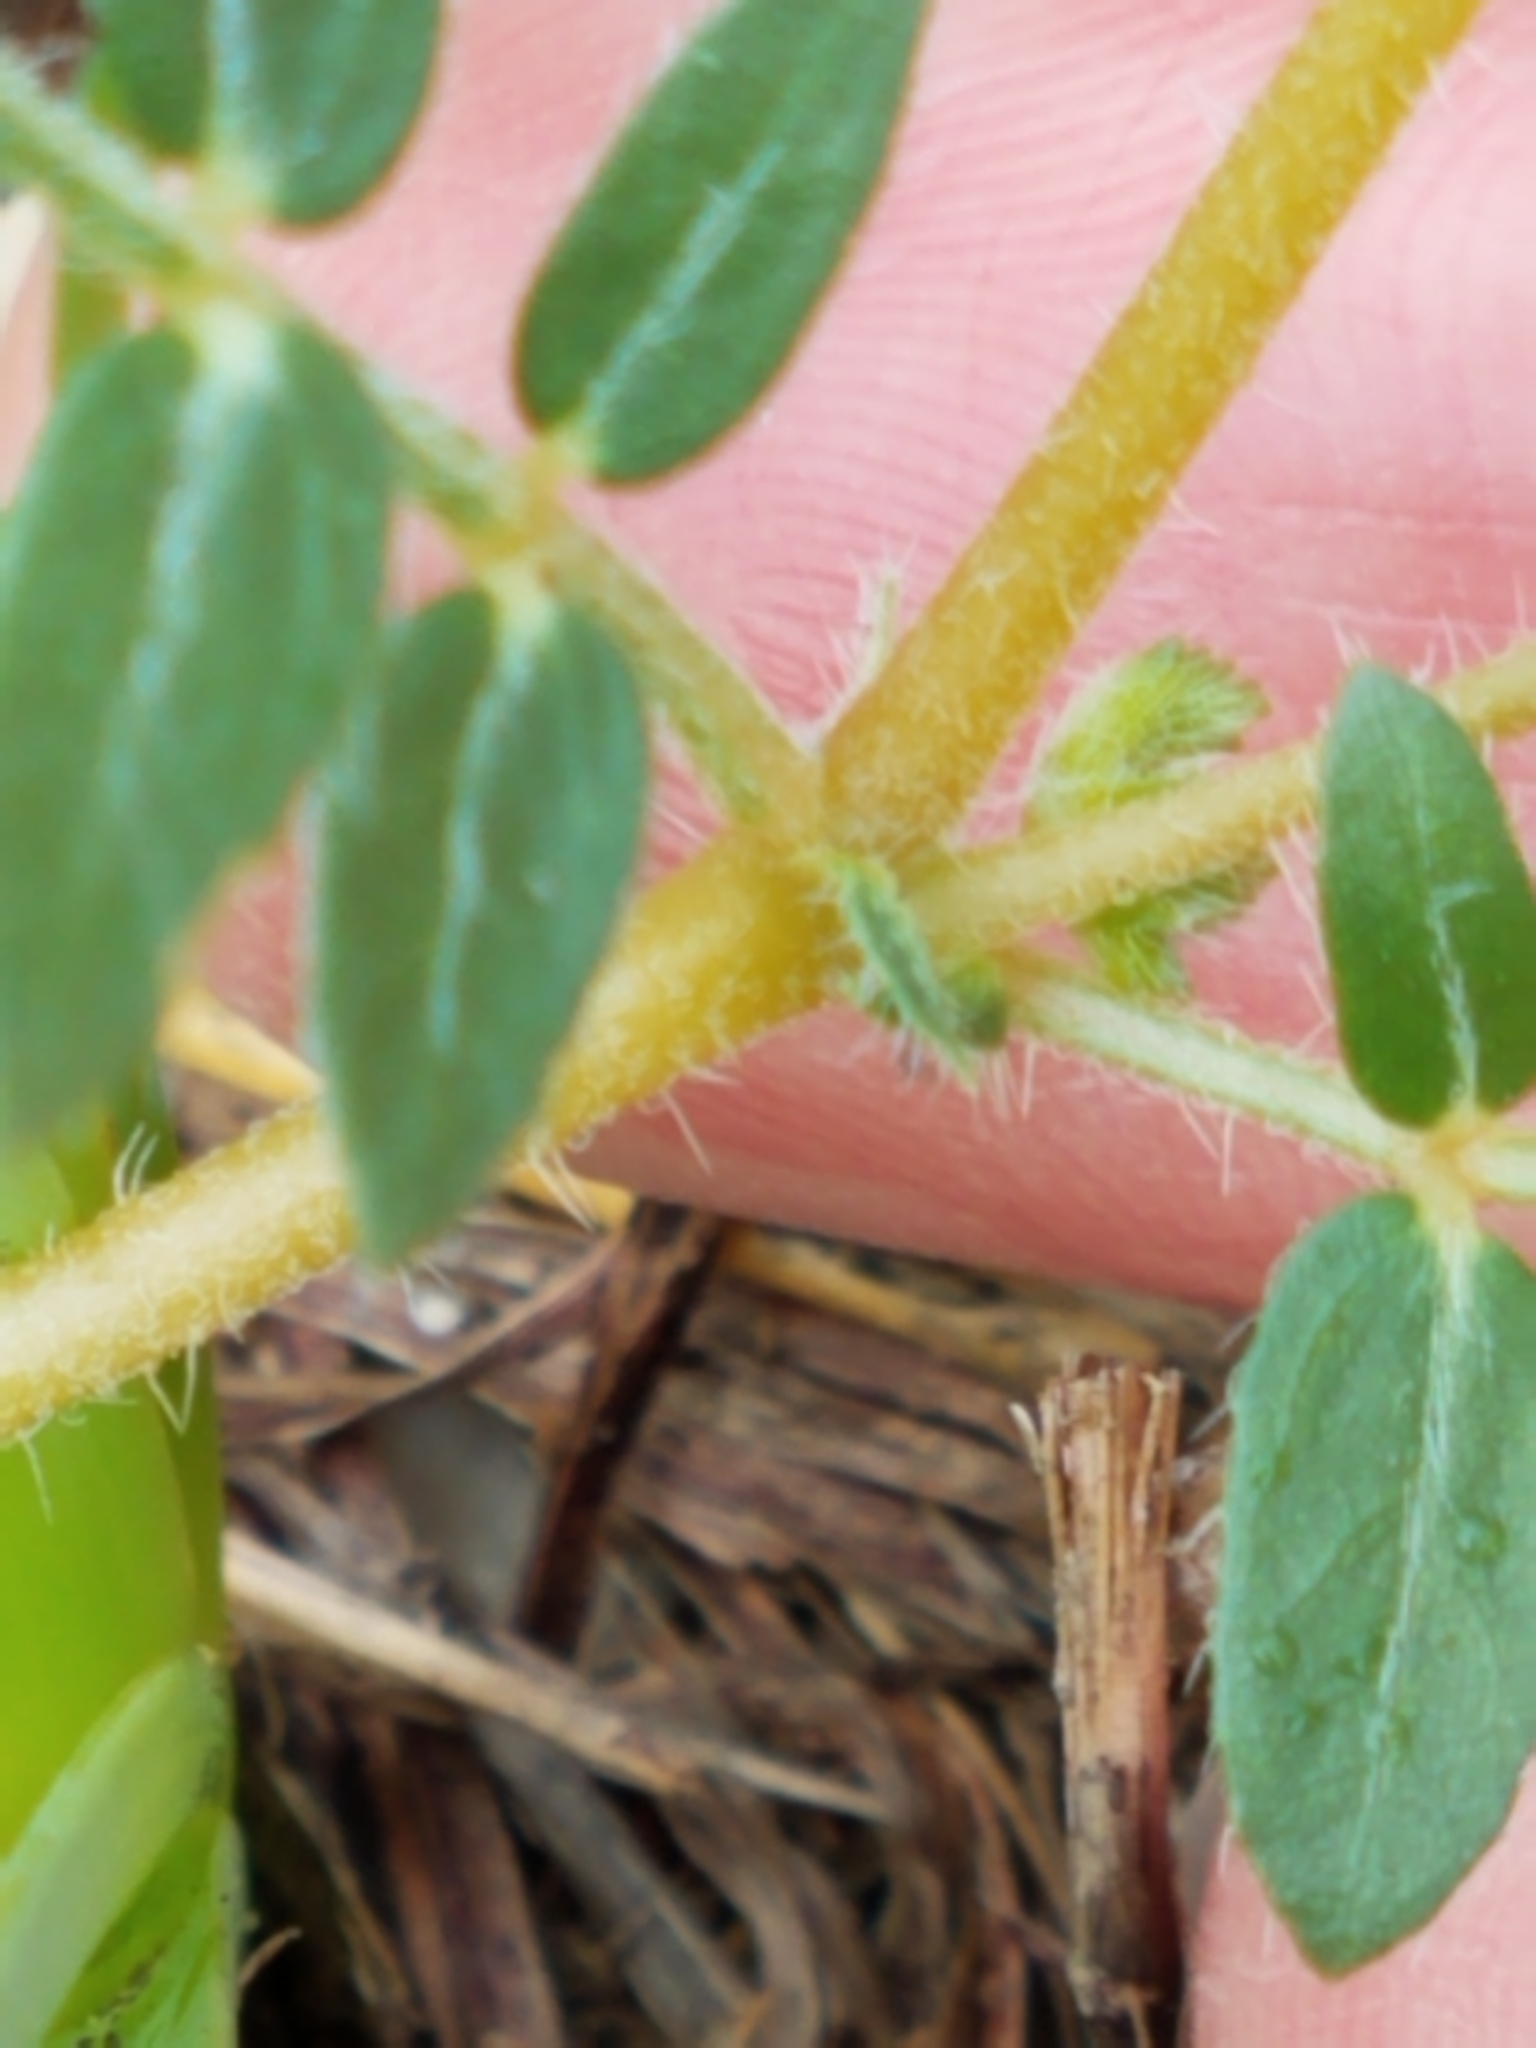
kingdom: Plantae
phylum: Tracheophyta
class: Magnoliopsida
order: Zygophyllales
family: Zygophyllaceae
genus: Tribulus
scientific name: Tribulus terrestris
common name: Puncturevine
